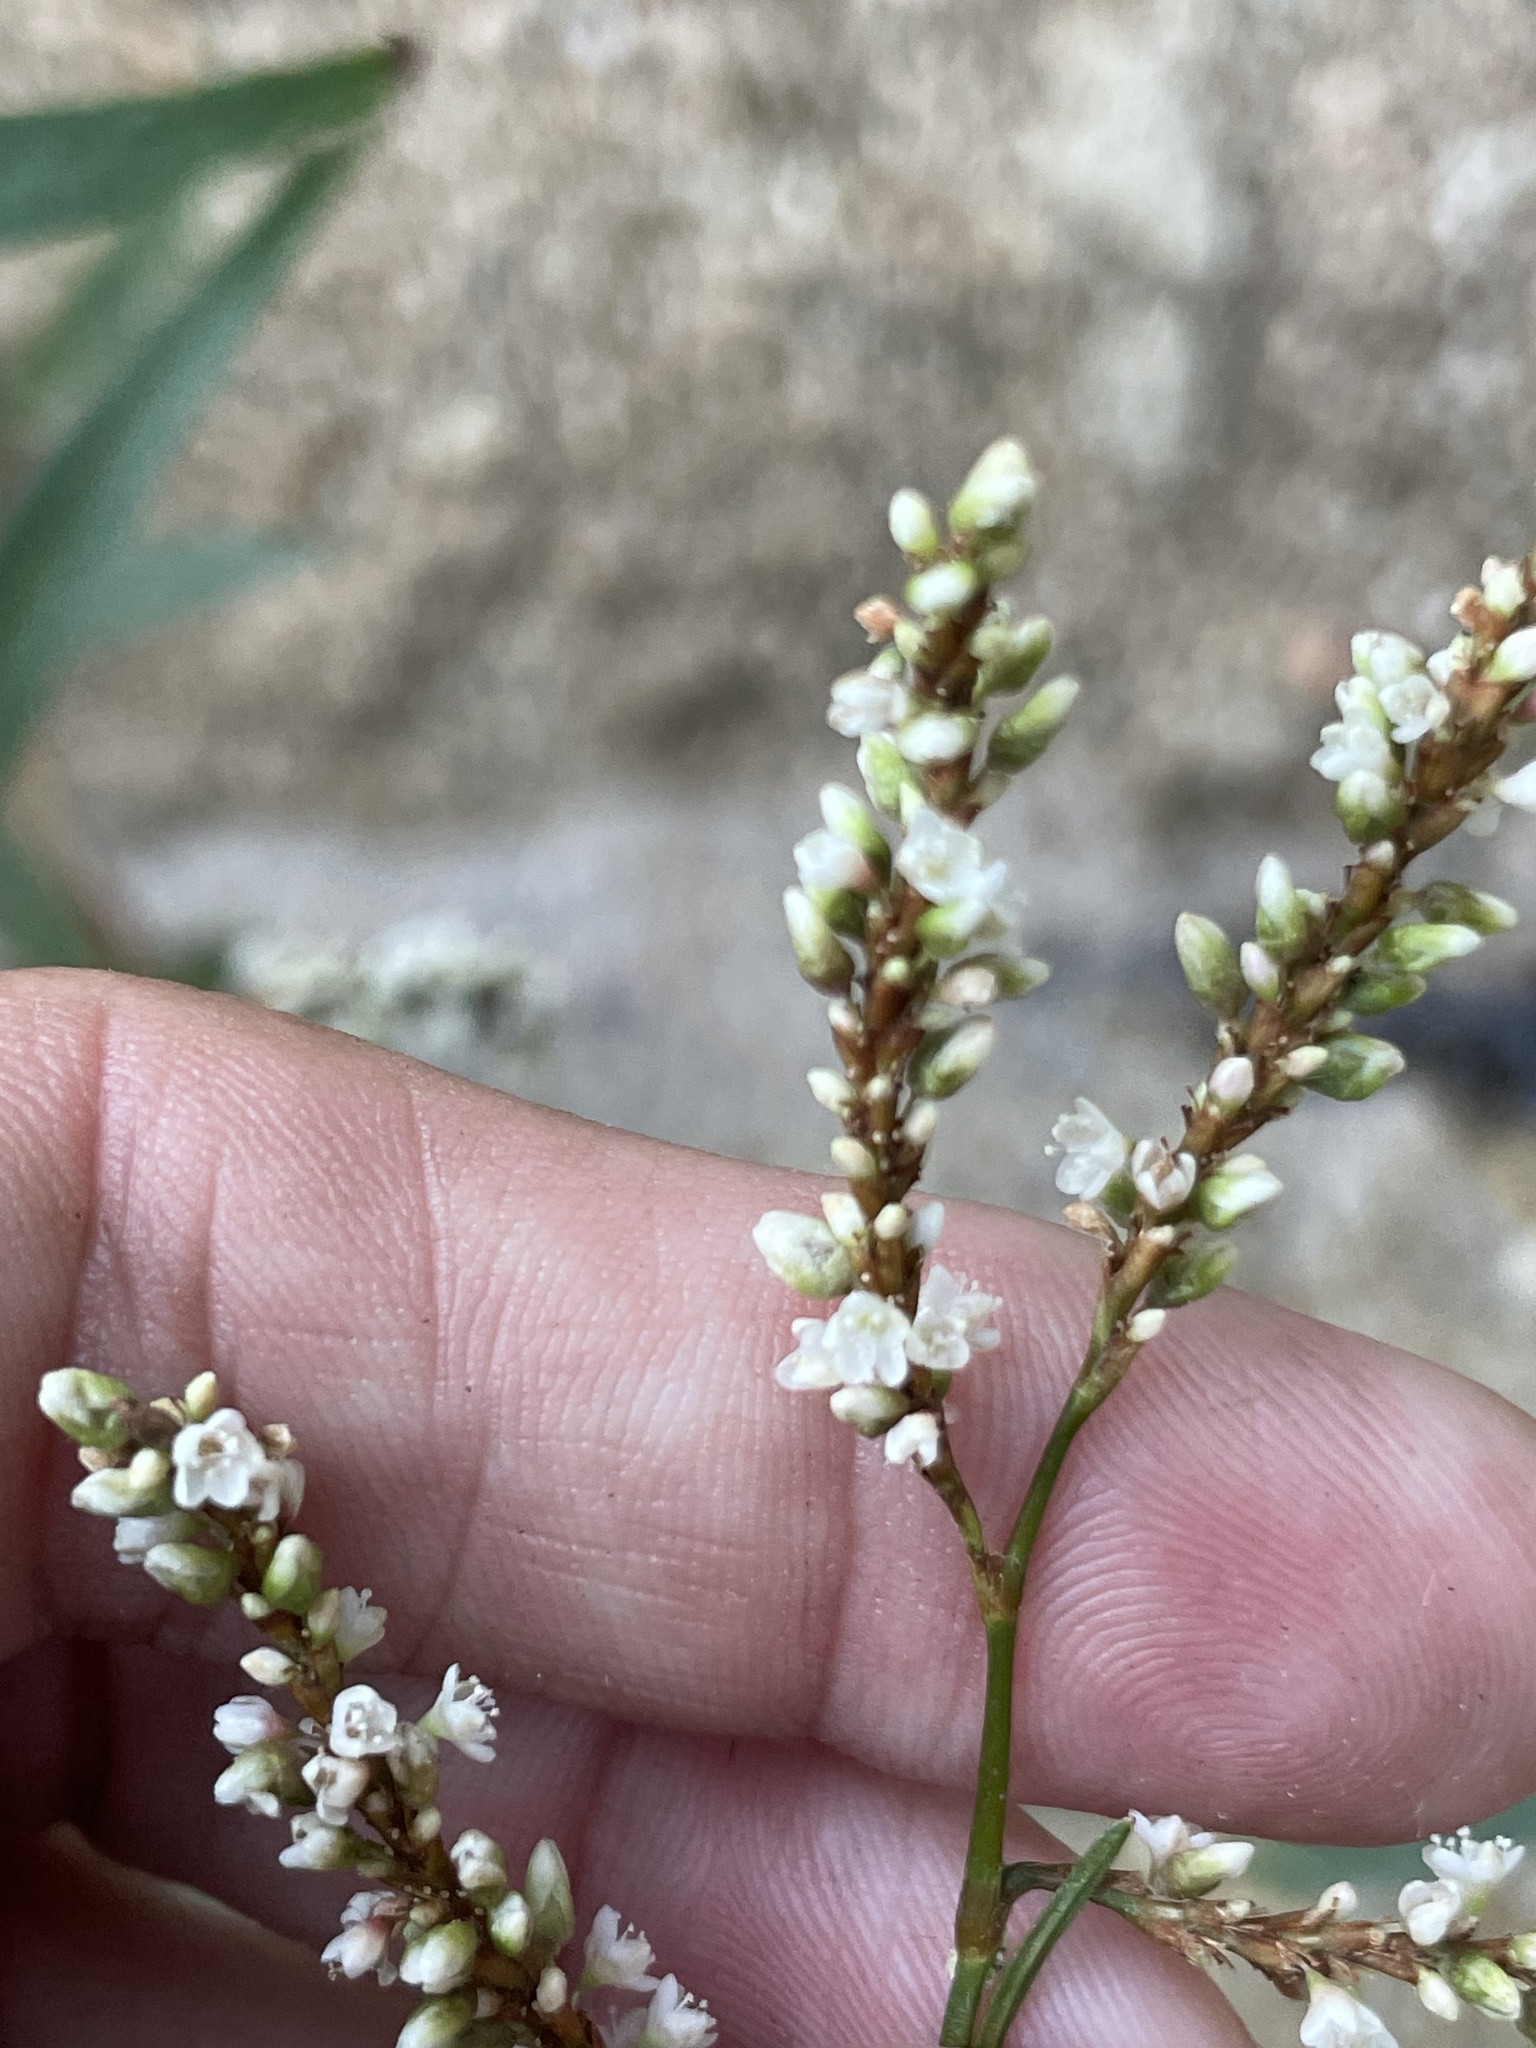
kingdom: Plantae
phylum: Tracheophyta
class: Magnoliopsida
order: Caryophyllales
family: Polygonaceae
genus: Persicaria
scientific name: Persicaria hydropiperoides
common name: Swamp smartweed
